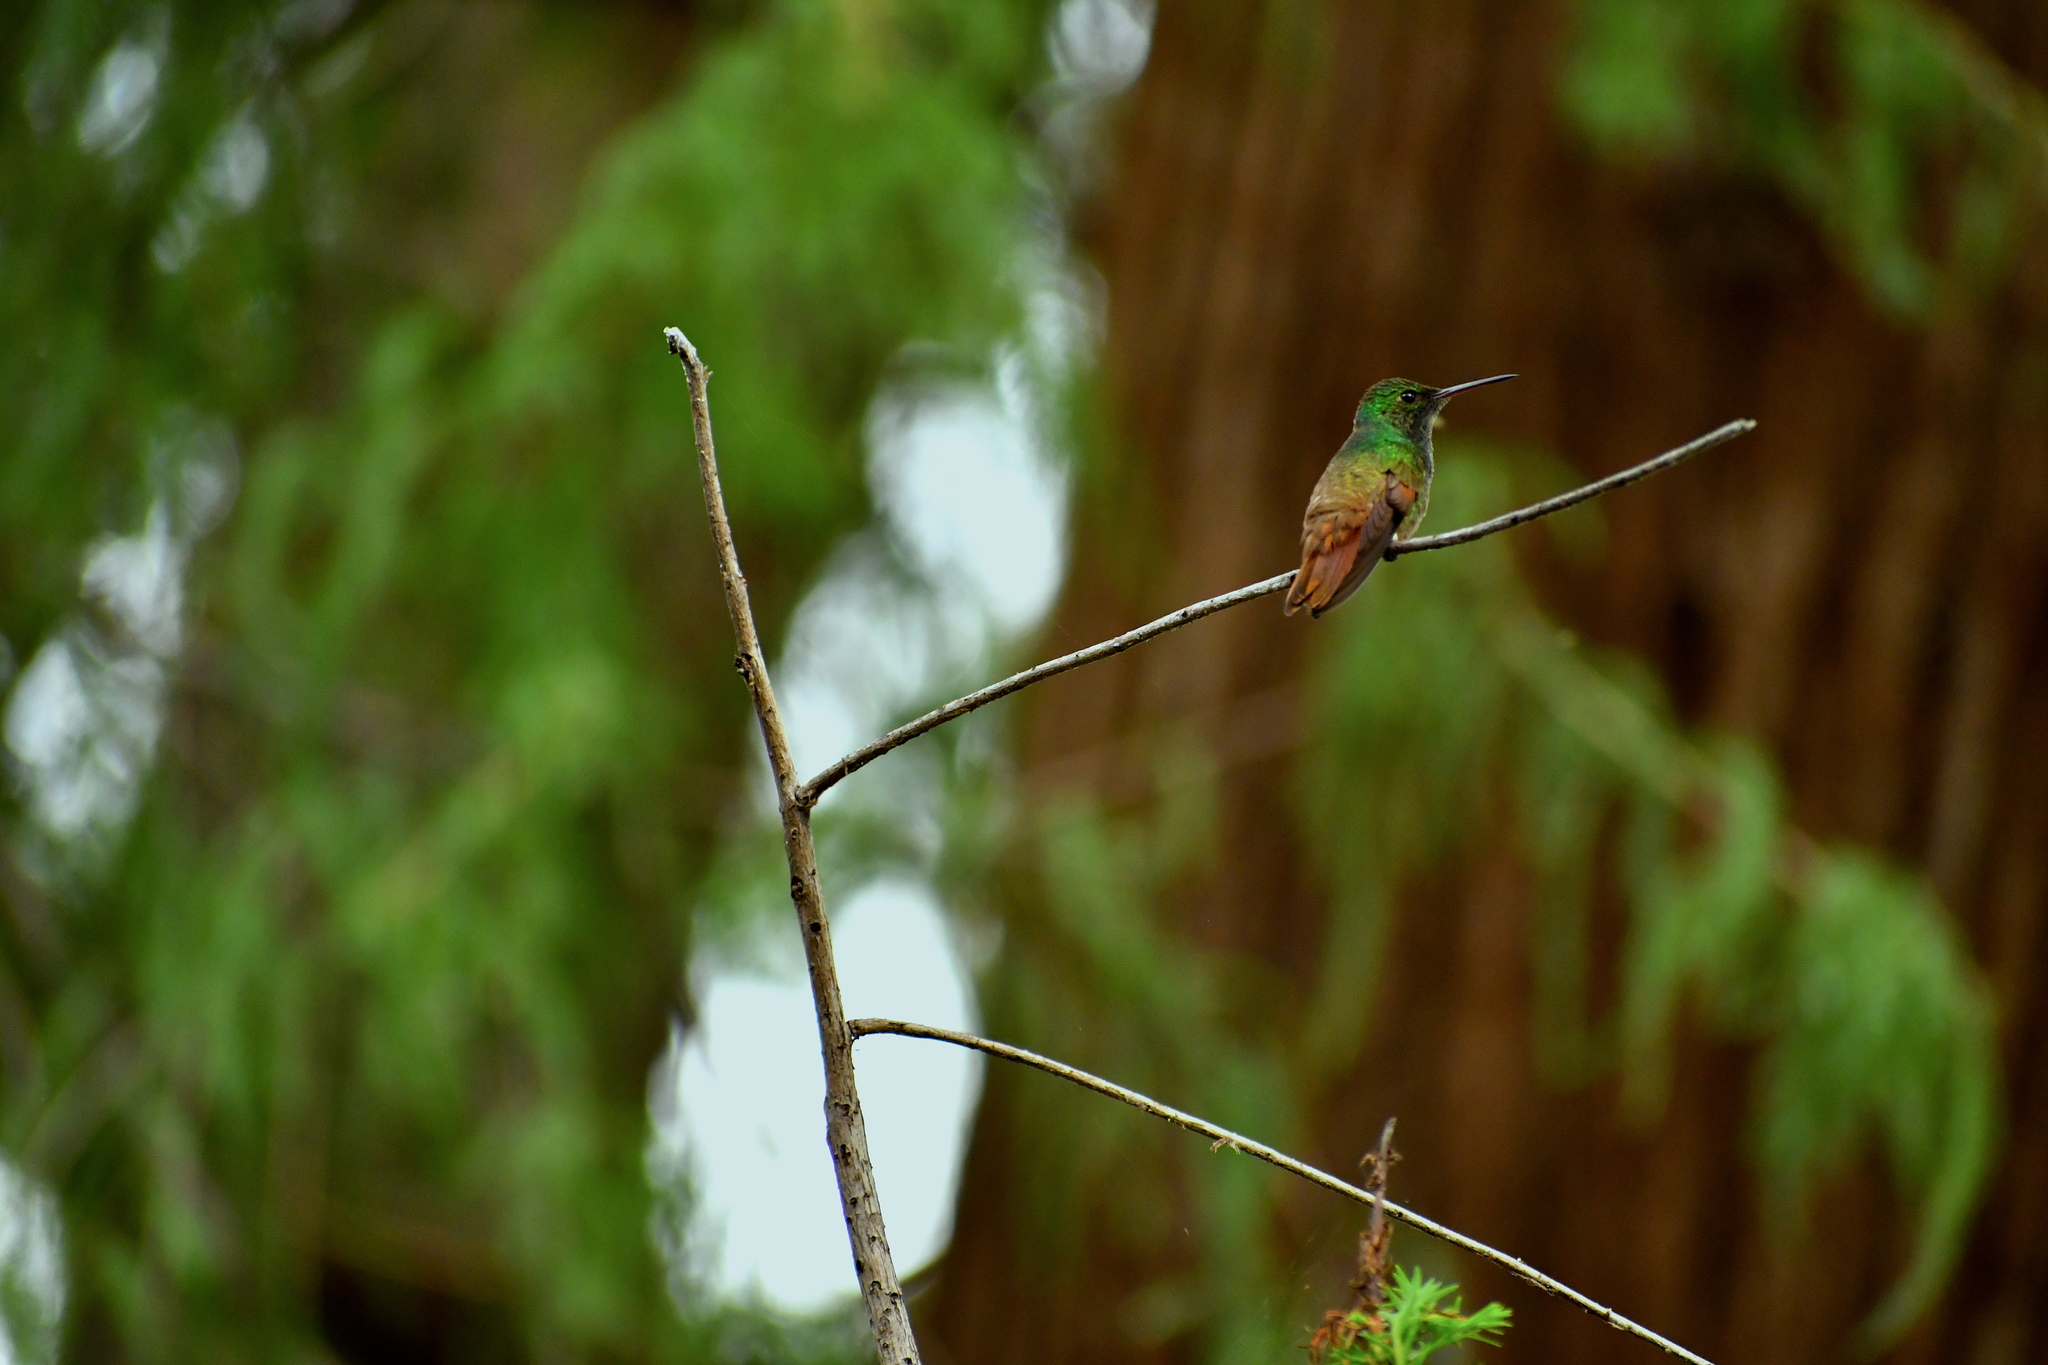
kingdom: Animalia
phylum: Chordata
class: Aves
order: Apodiformes
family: Trochilidae
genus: Saucerottia
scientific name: Saucerottia beryllina
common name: Berylline hummingbird
